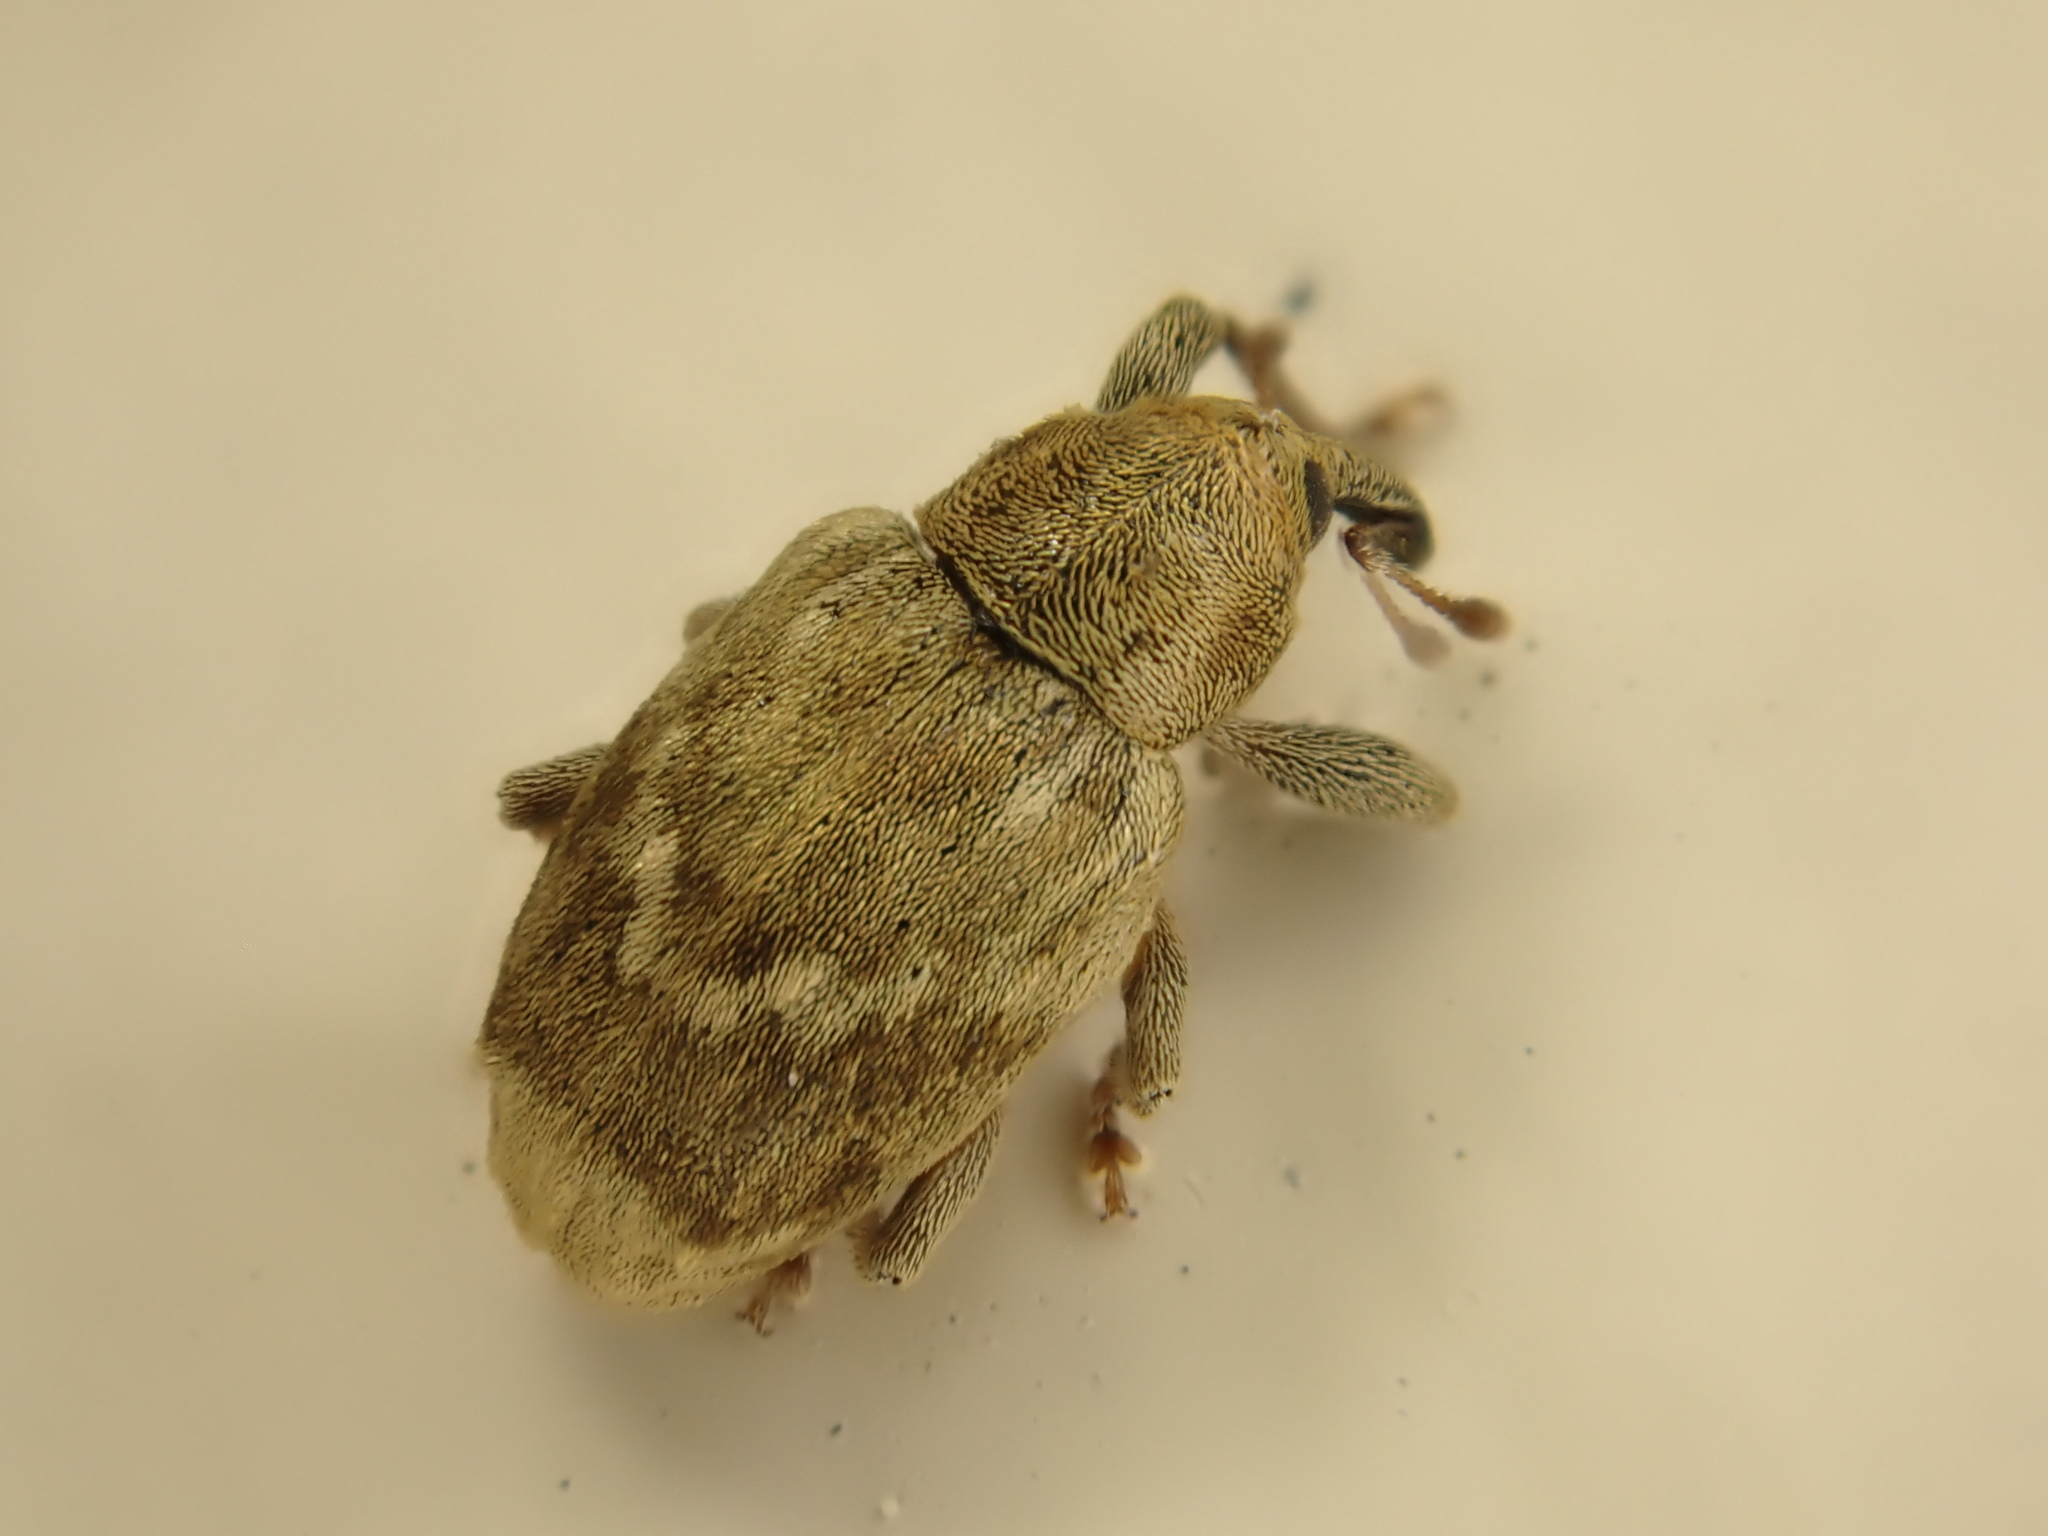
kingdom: Animalia
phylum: Arthropoda
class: Insecta
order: Coleoptera
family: Curculionidae
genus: Aneuma
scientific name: Aneuma compta
